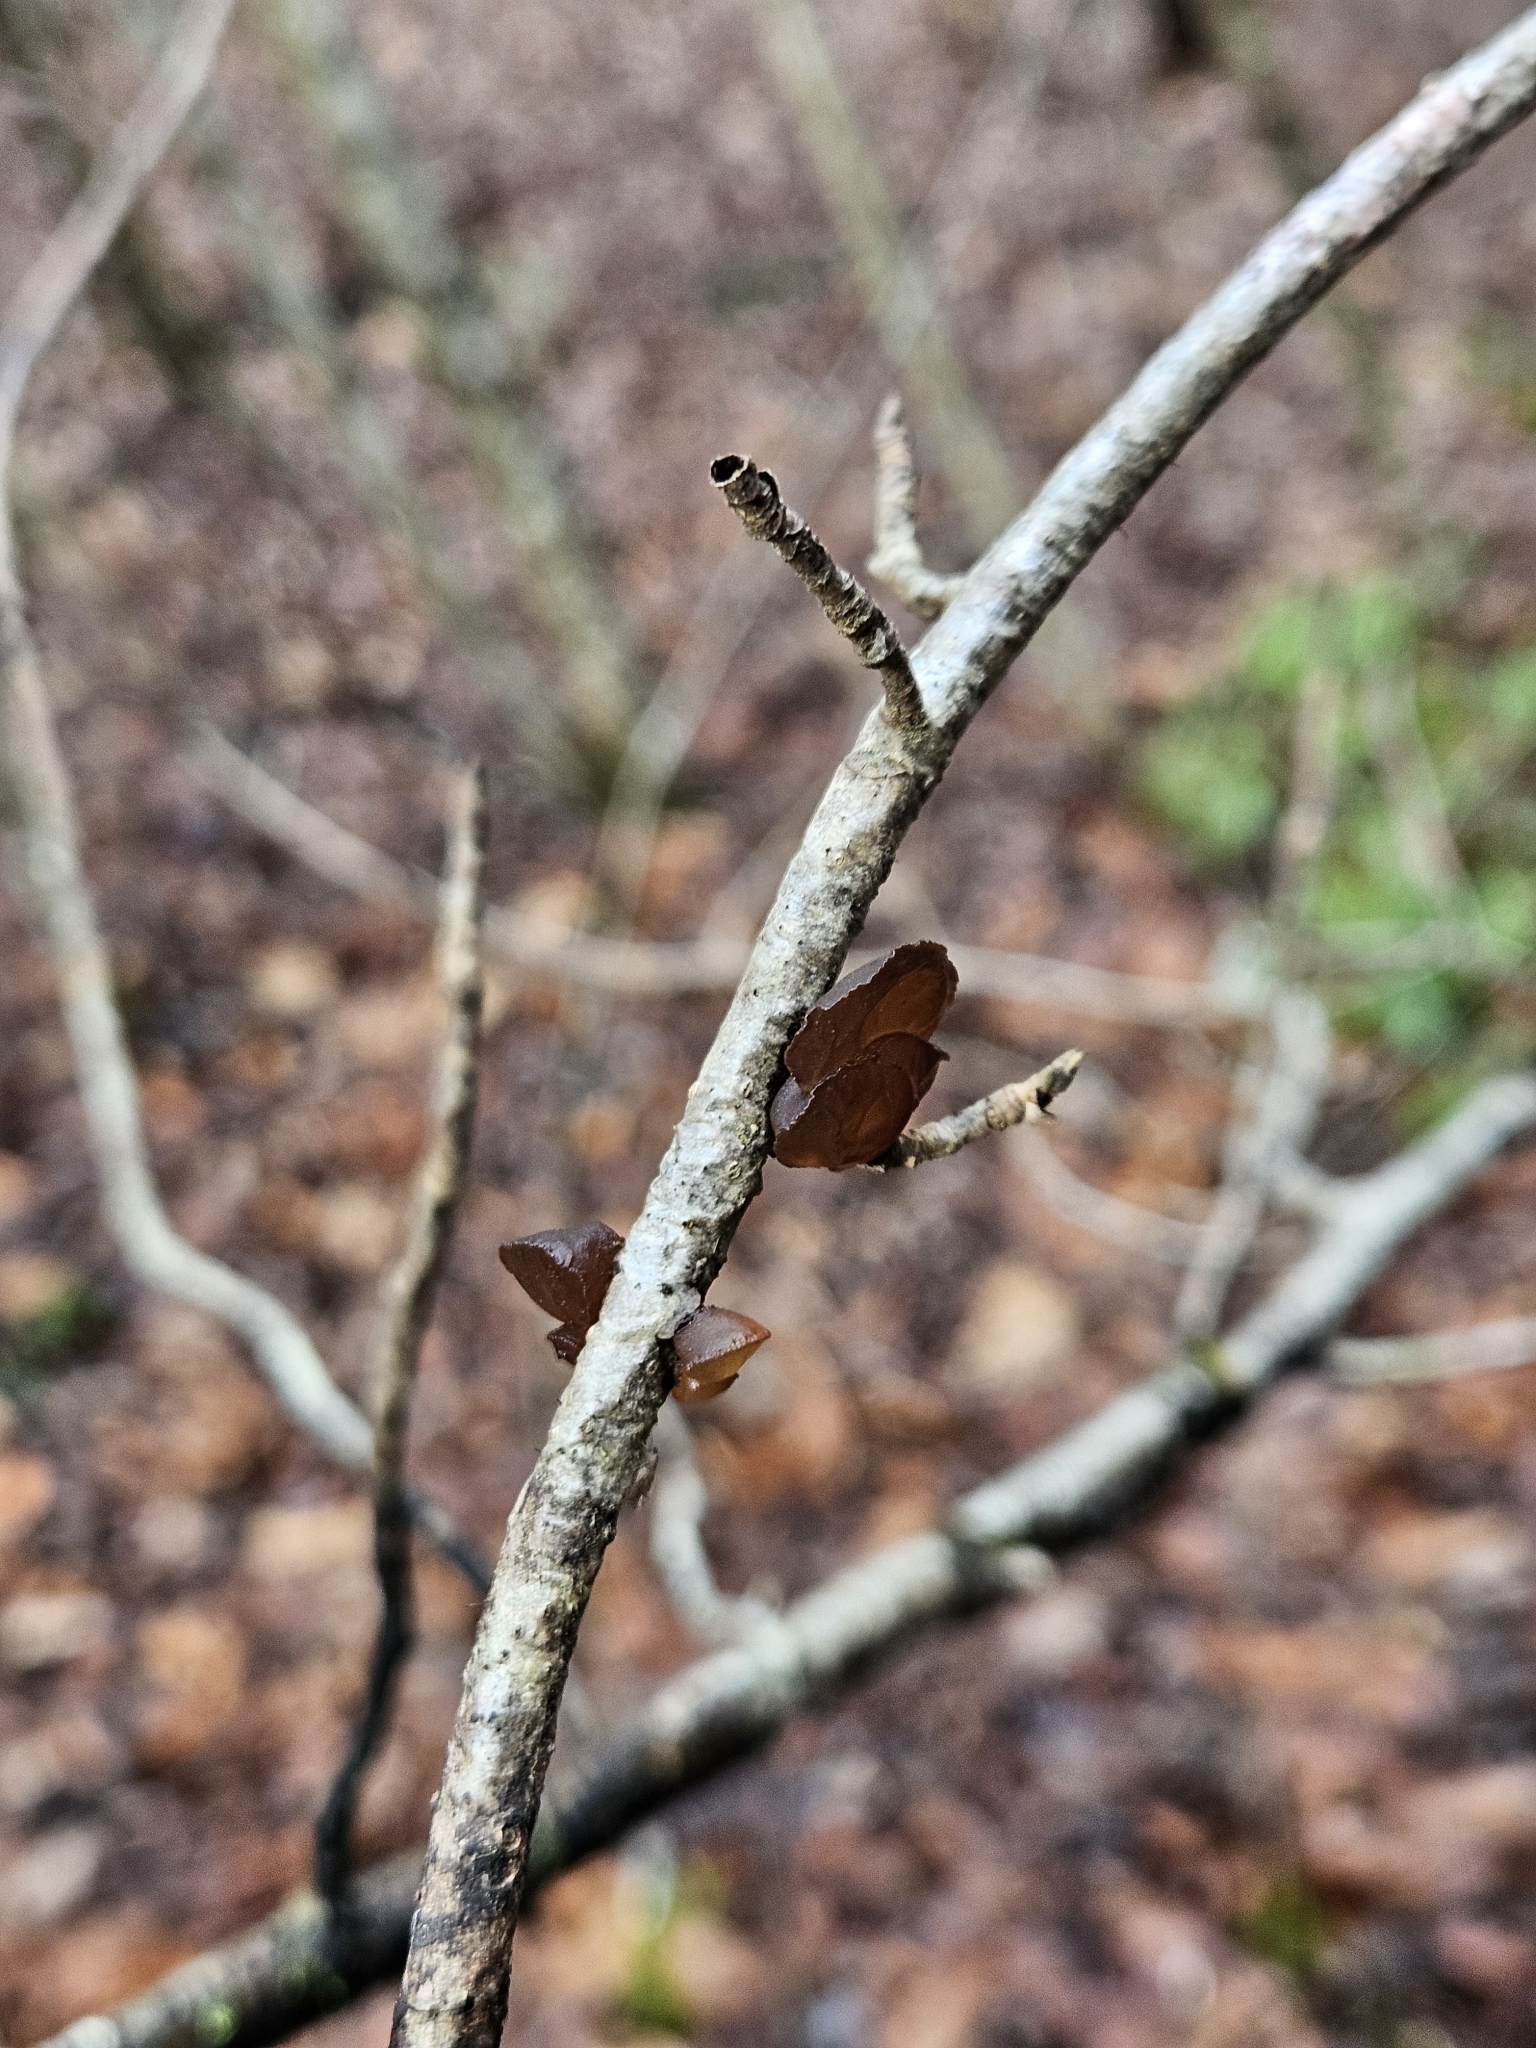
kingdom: Fungi
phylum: Basidiomycota
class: Agaricomycetes
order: Auriculariales
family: Auriculariaceae
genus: Exidia
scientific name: Exidia
